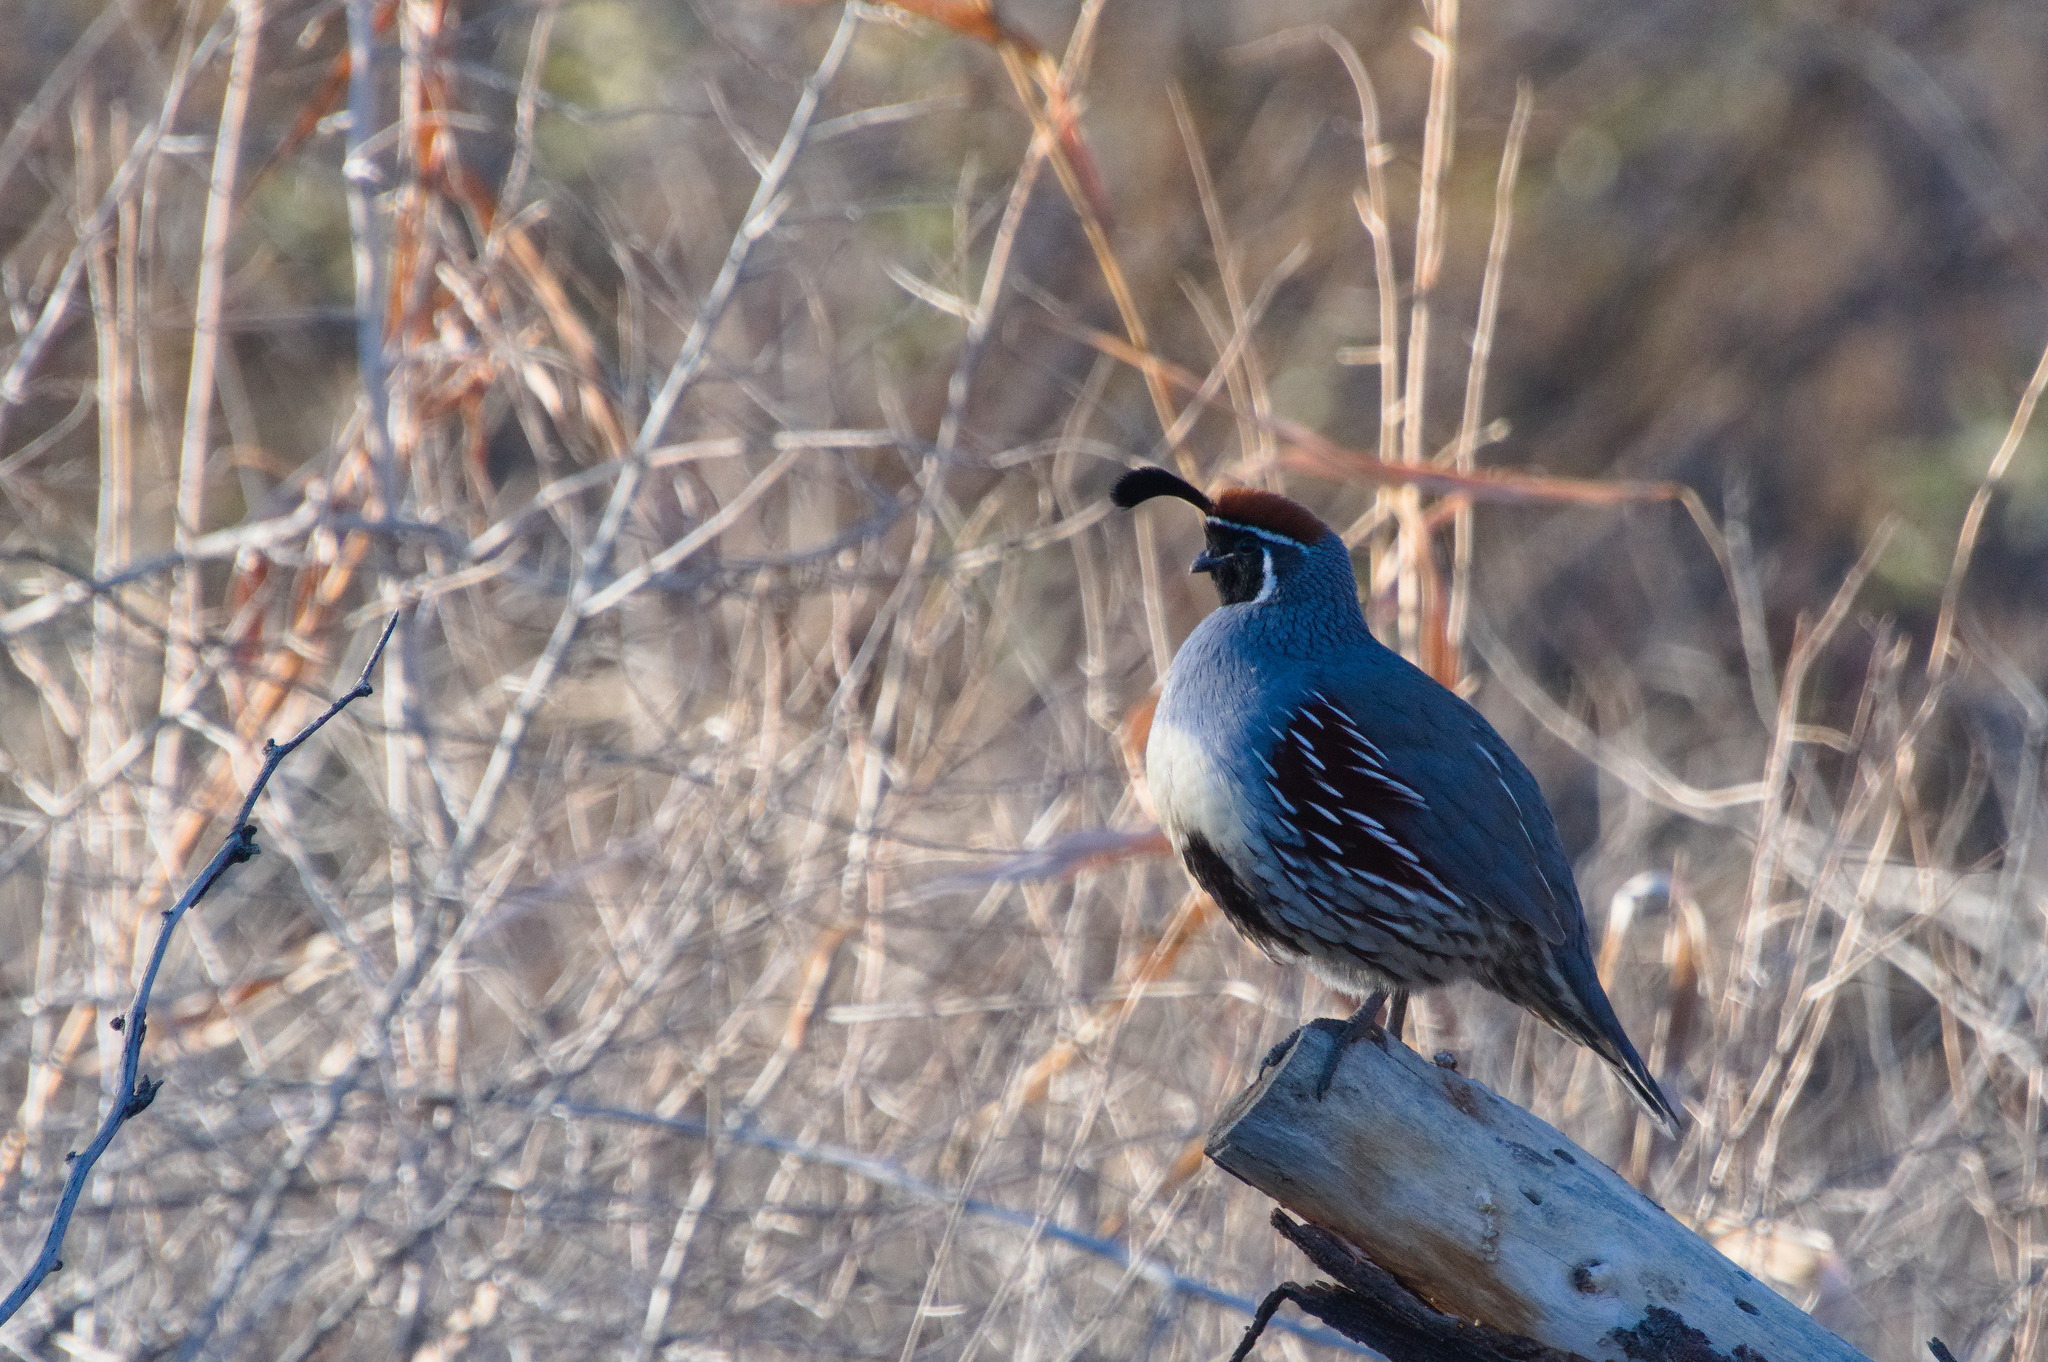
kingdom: Animalia
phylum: Chordata
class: Aves
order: Galliformes
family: Odontophoridae
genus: Callipepla
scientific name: Callipepla gambelii
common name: Gambel's quail
